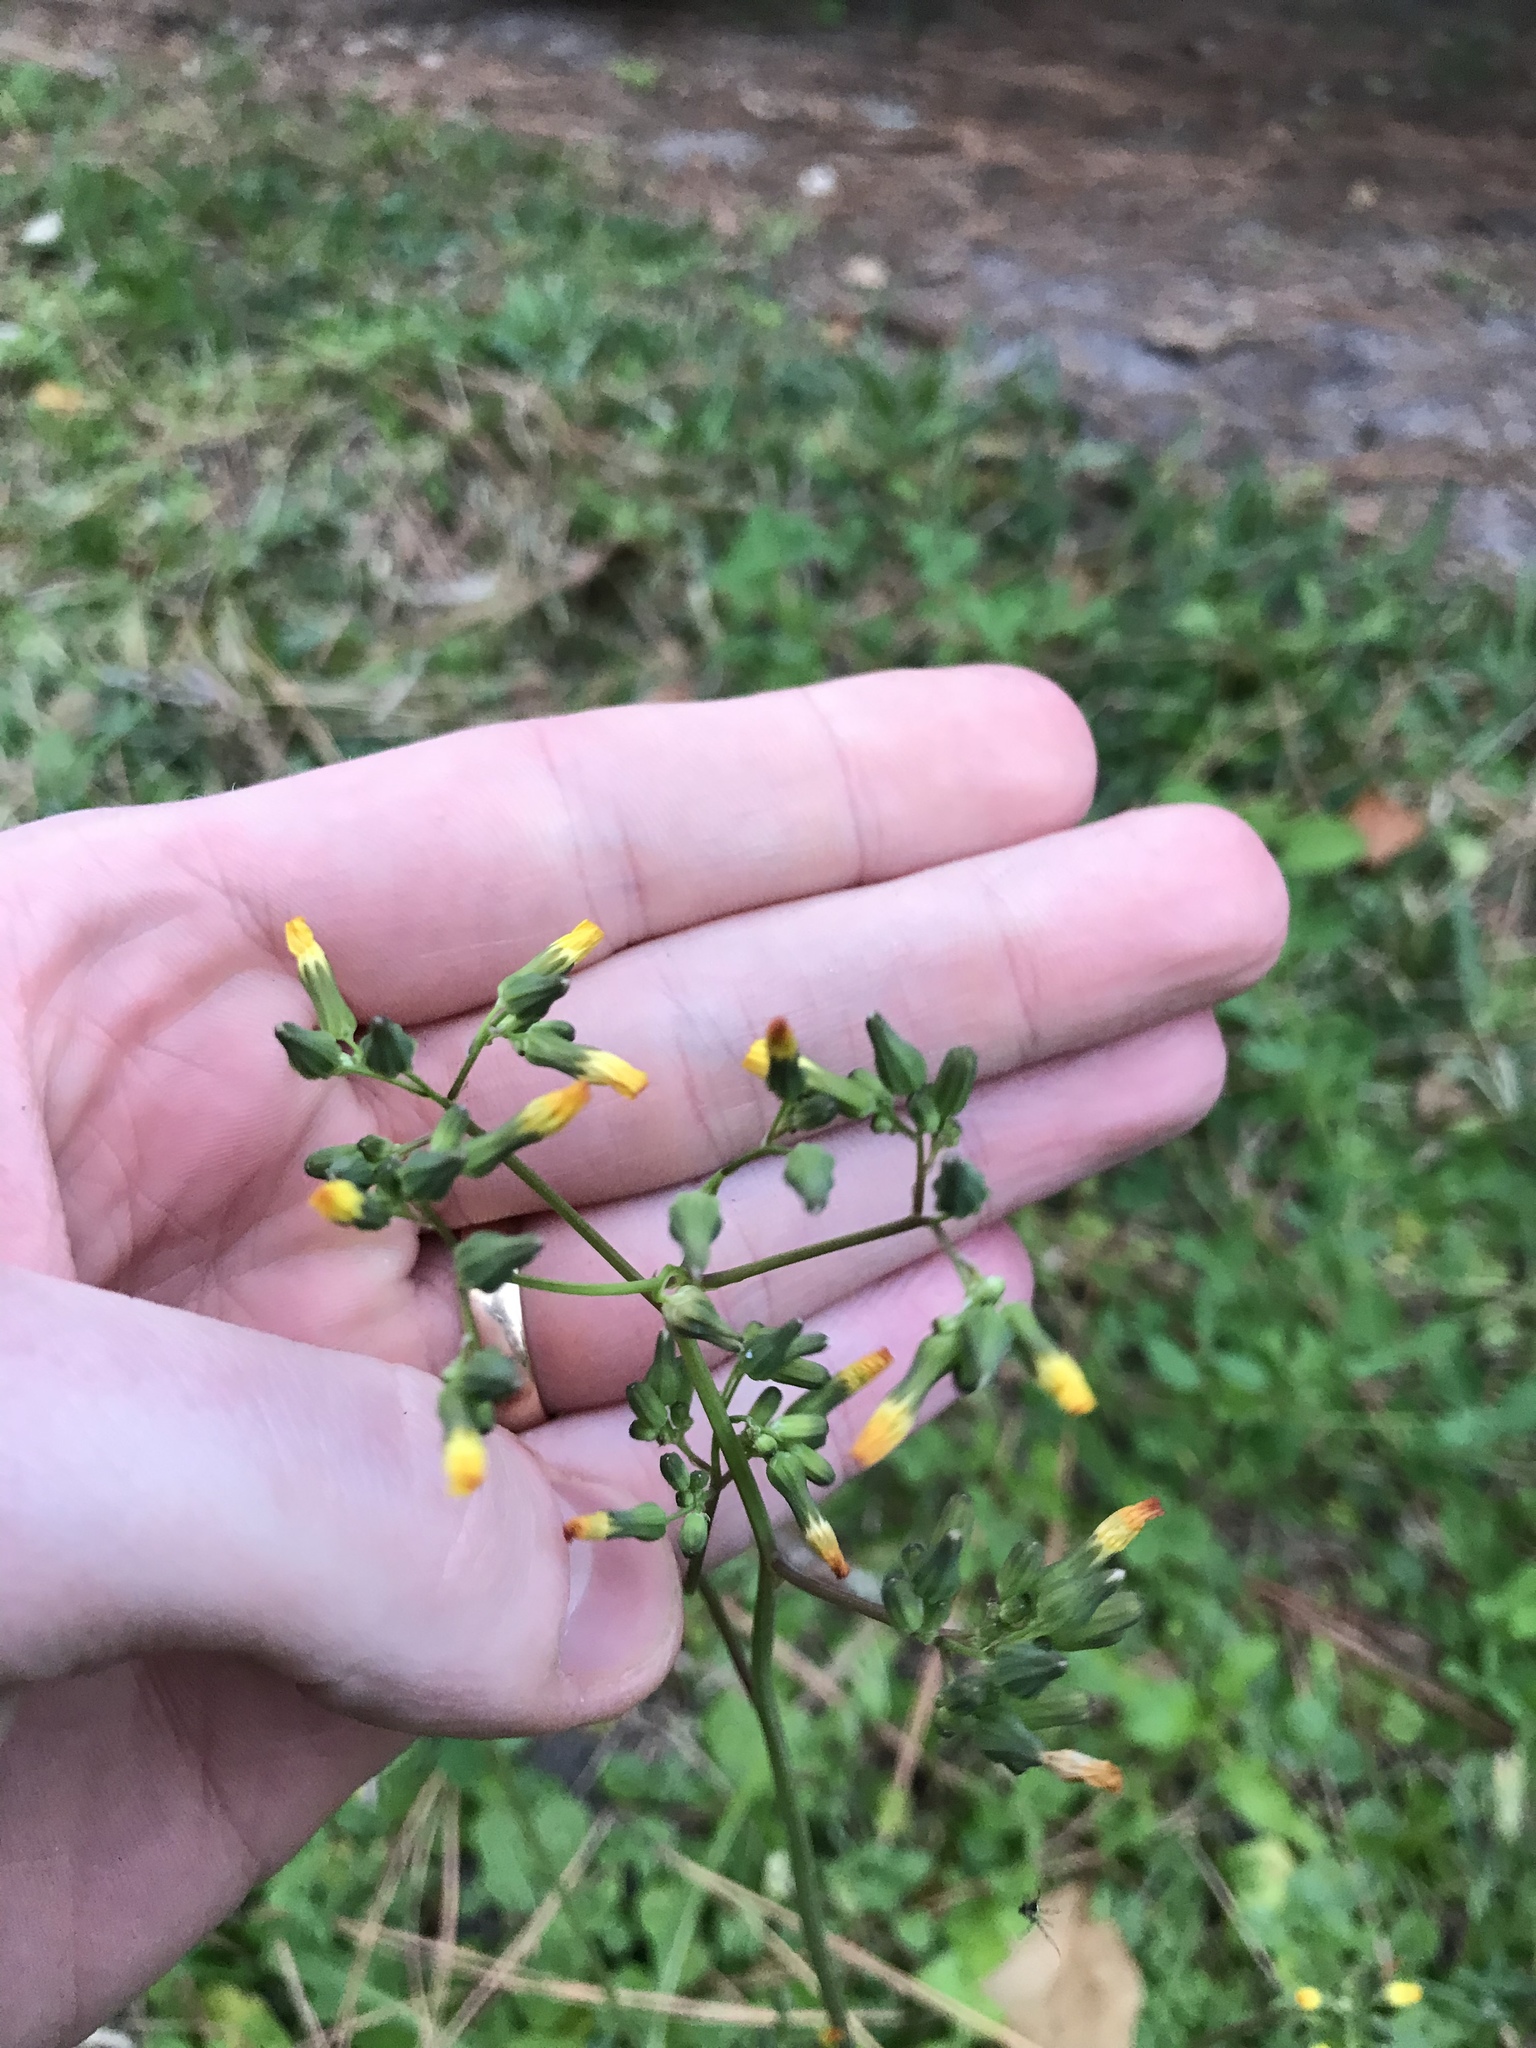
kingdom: Plantae
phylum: Tracheophyta
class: Magnoliopsida
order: Asterales
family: Asteraceae
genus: Youngia
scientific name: Youngia japonica
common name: Oriental false hawksbeard
